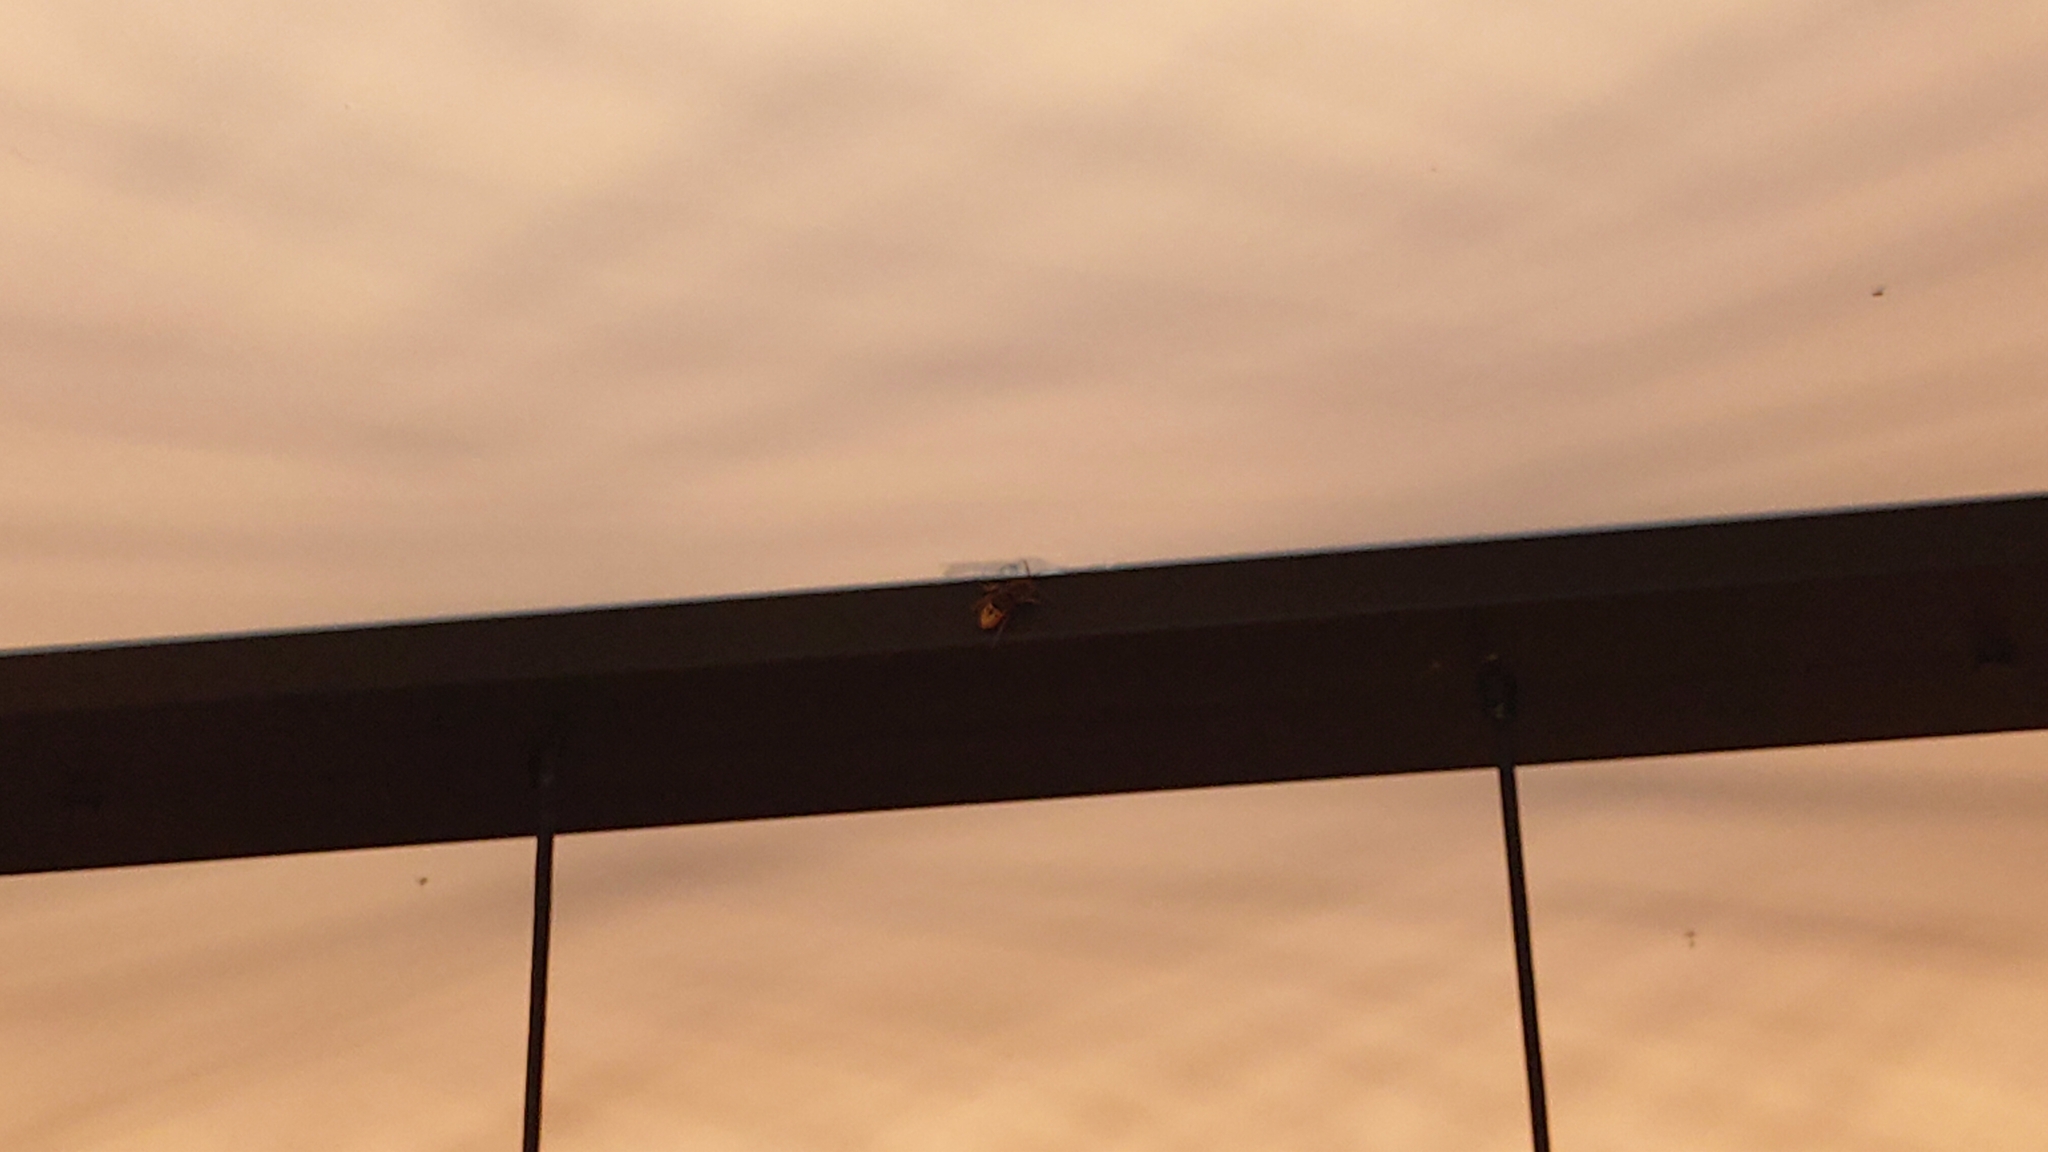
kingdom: Animalia
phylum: Arthropoda
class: Insecta
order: Hymenoptera
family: Vespidae
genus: Vespa
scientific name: Vespa crabro
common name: Hornet
